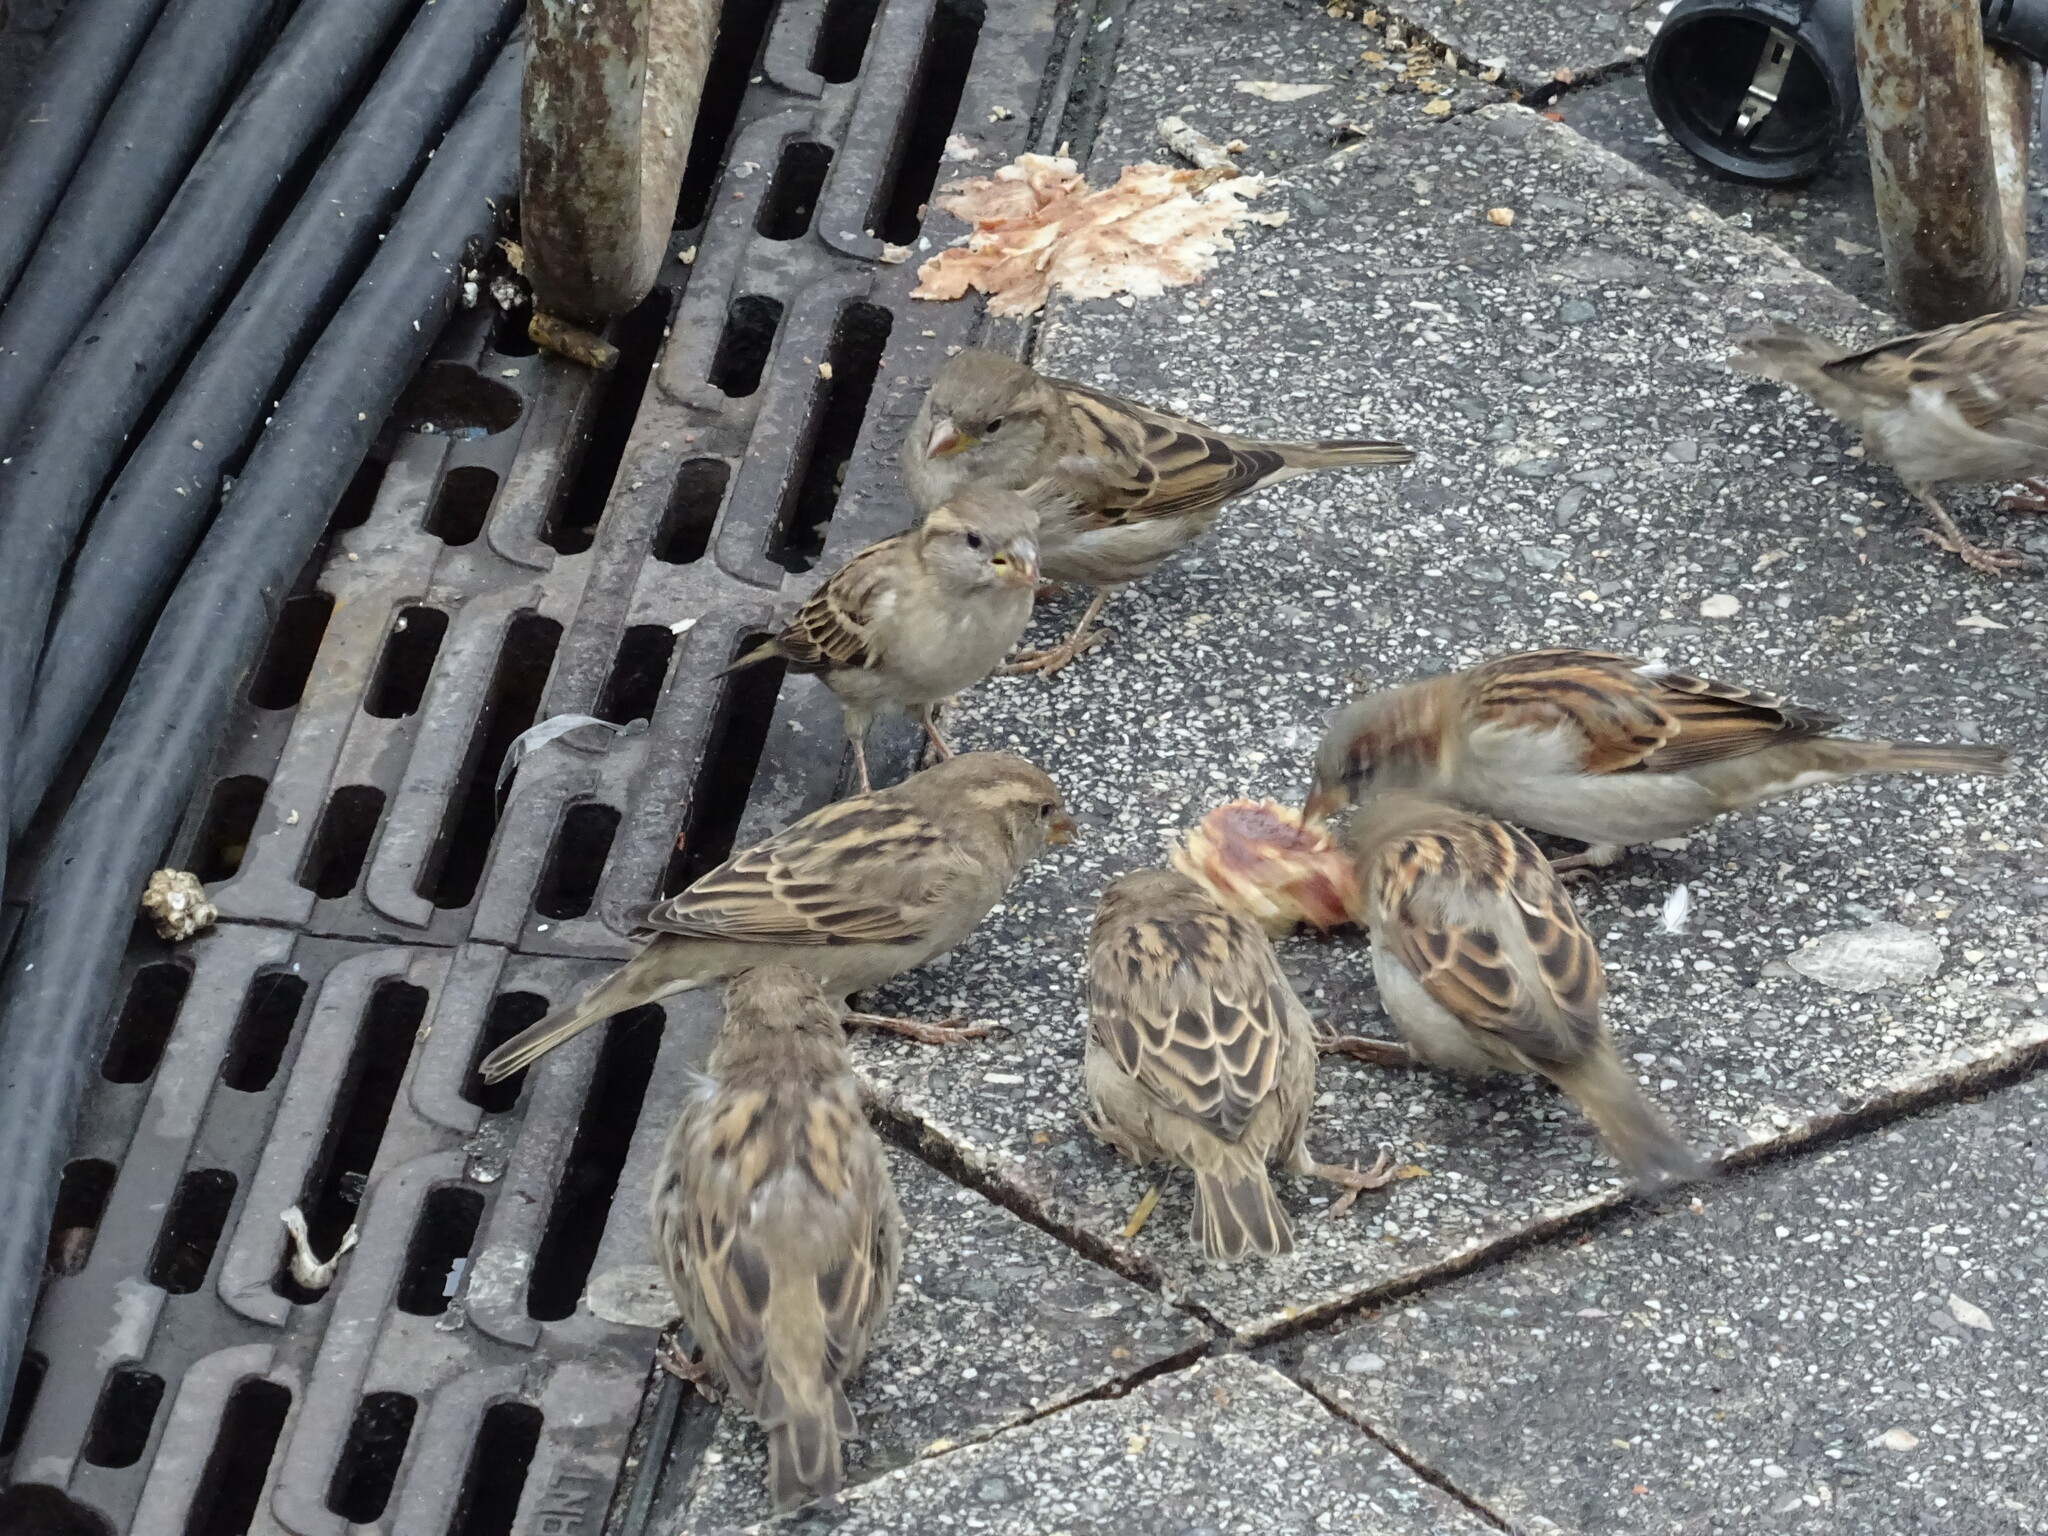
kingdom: Animalia
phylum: Chordata
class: Aves
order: Passeriformes
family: Passeridae
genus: Passer
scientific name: Passer domesticus
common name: House sparrow
